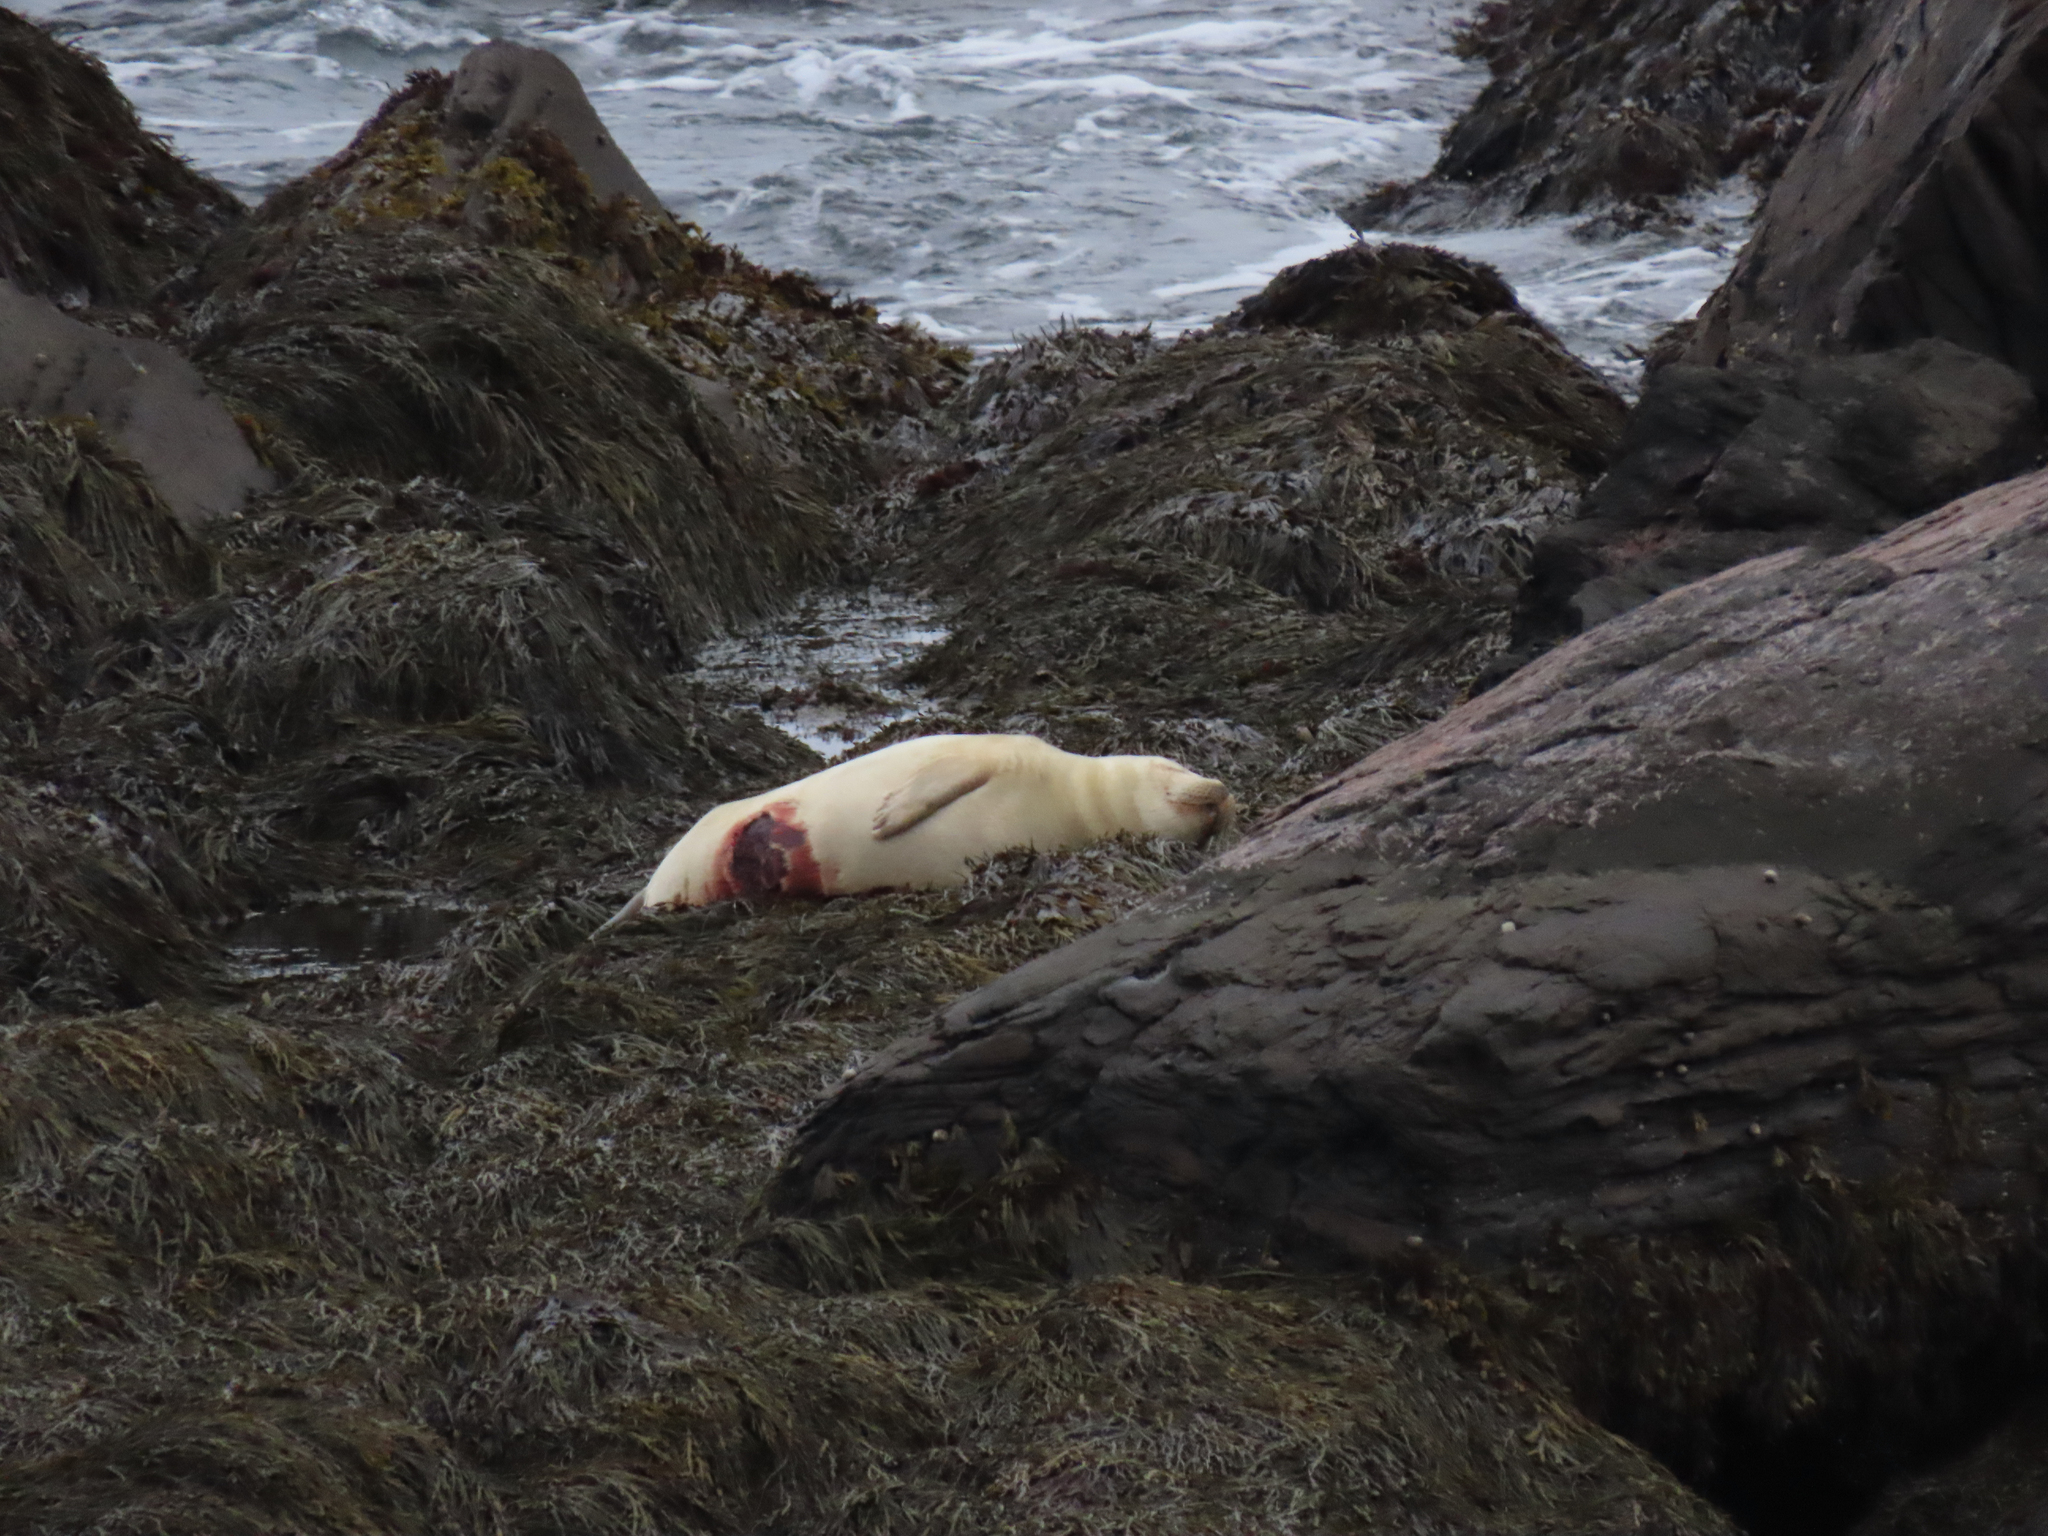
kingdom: Animalia
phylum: Chordata
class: Mammalia
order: Carnivora
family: Phocidae
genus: Phoca
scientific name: Phoca vitulina
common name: Harbor seal
